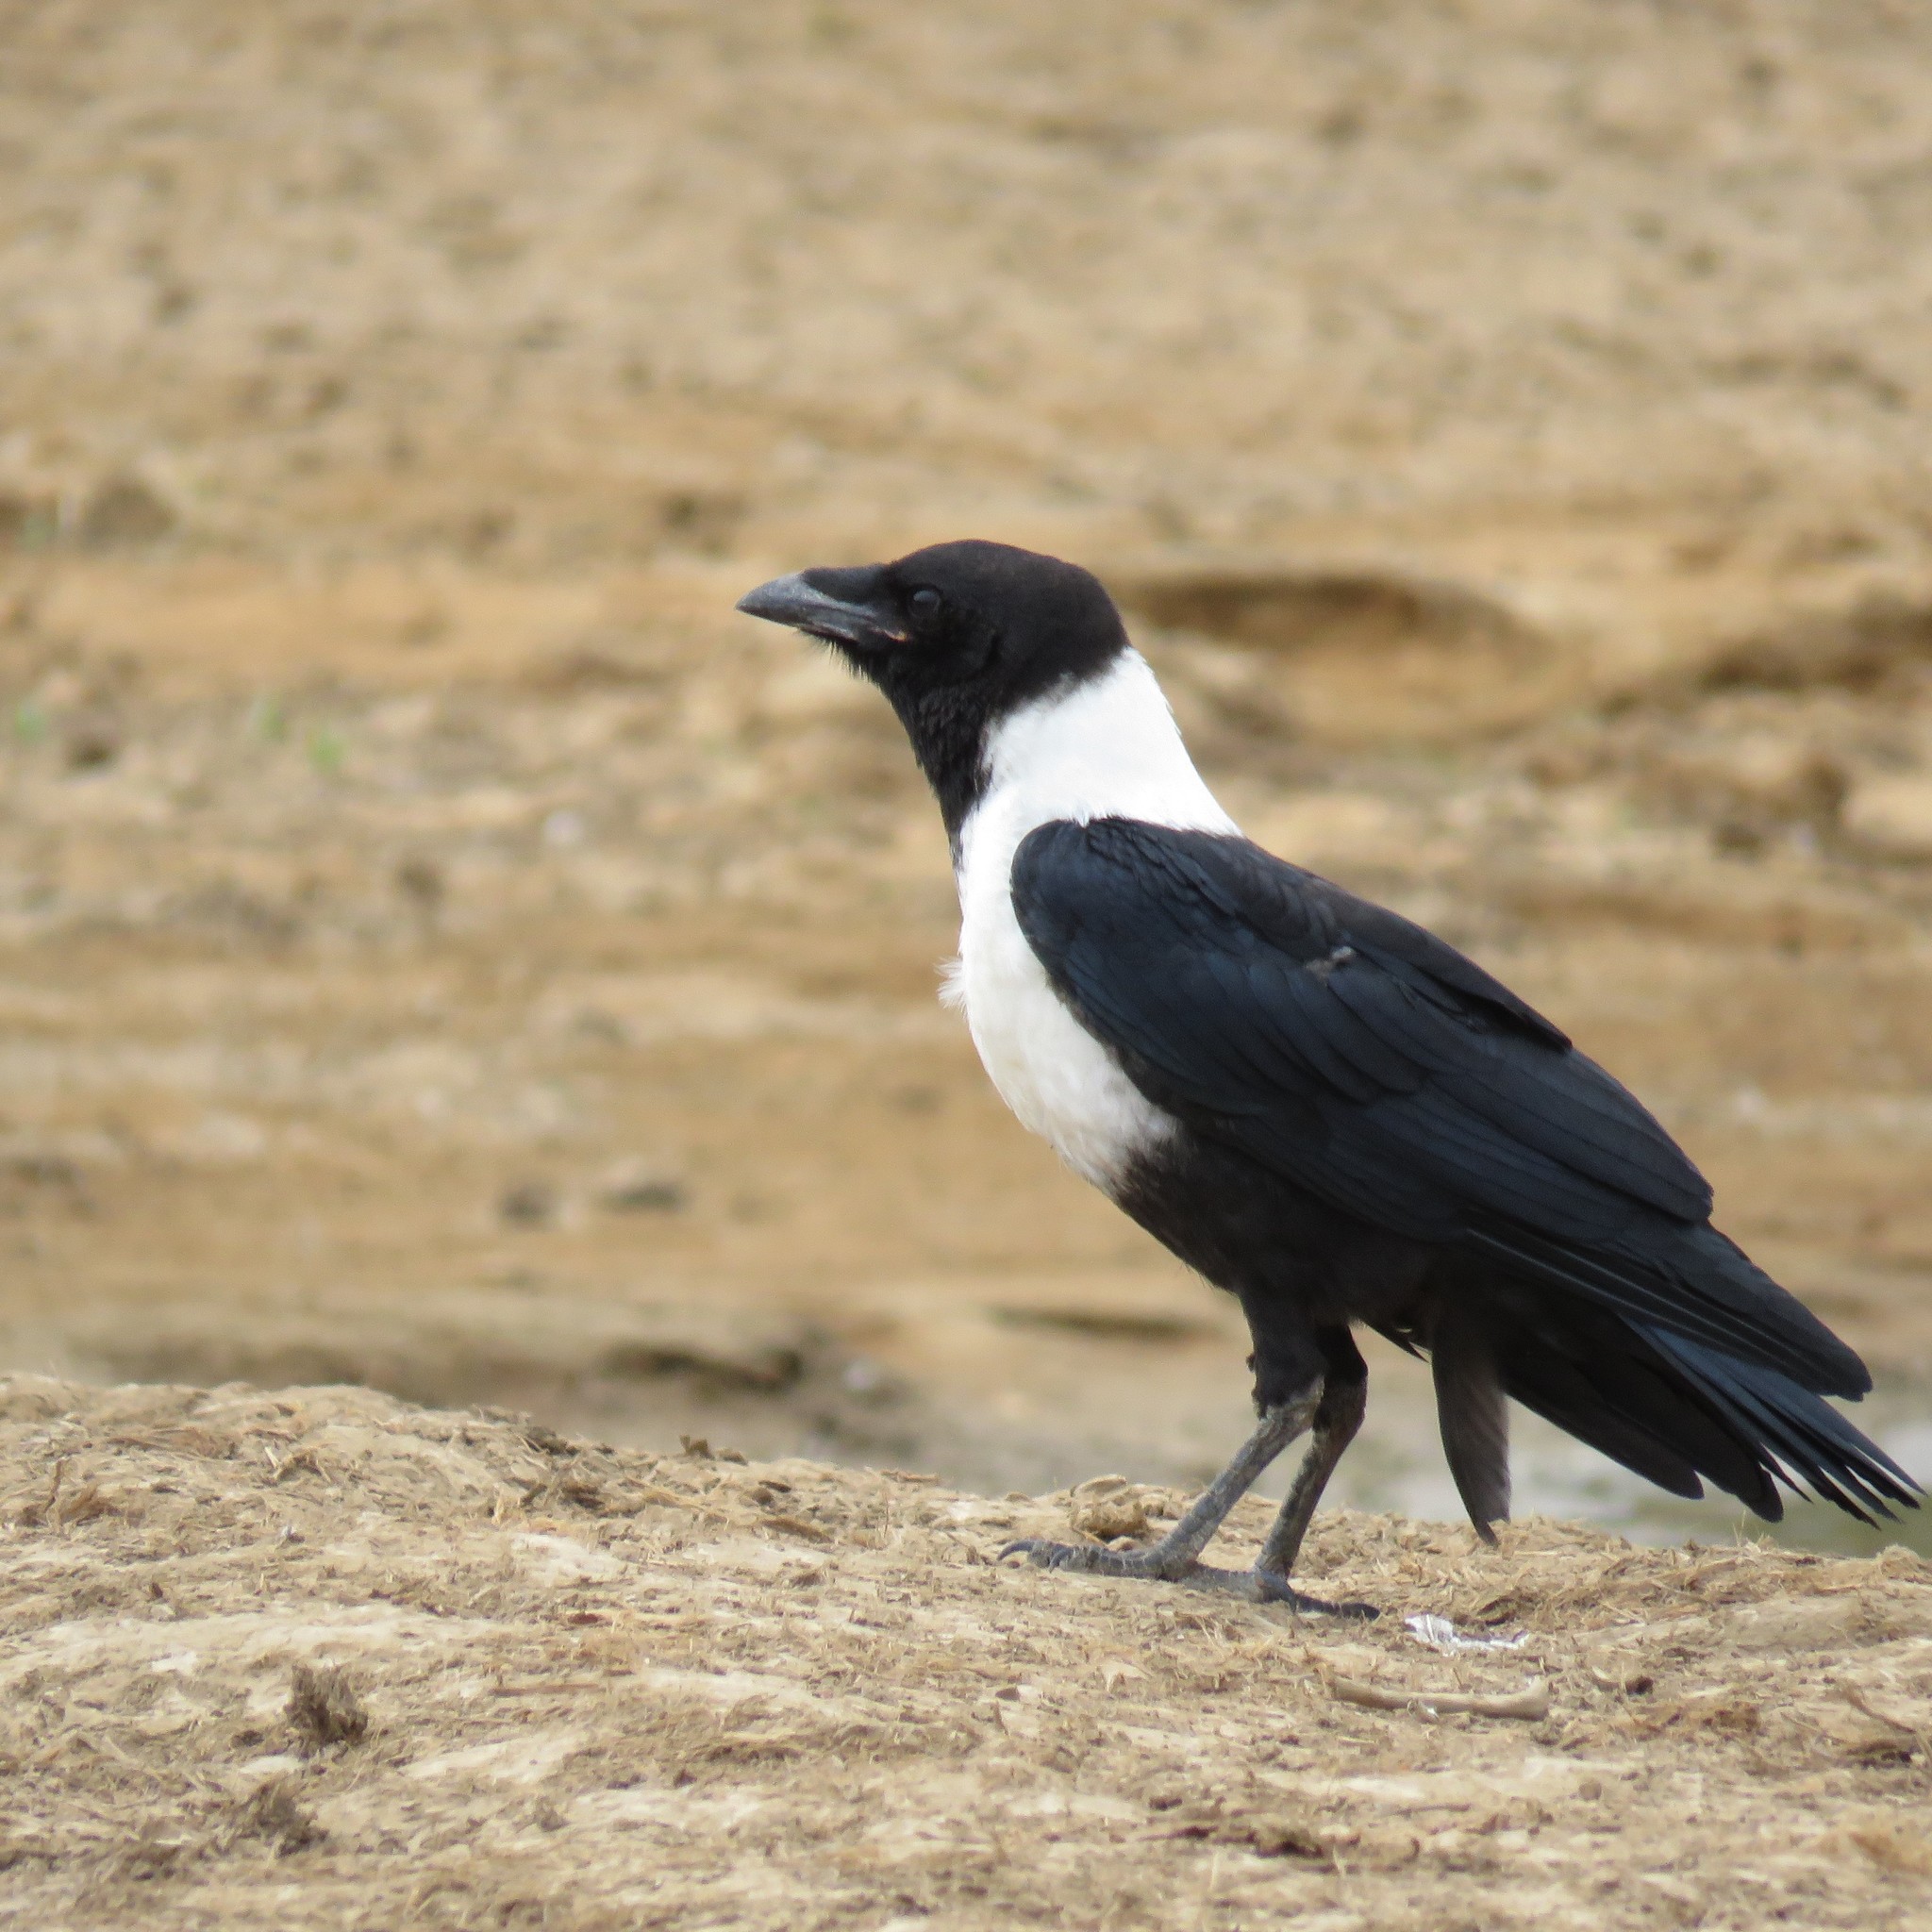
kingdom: Animalia
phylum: Chordata
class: Aves
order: Passeriformes
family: Corvidae
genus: Corvus
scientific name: Corvus albus
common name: Pied crow
